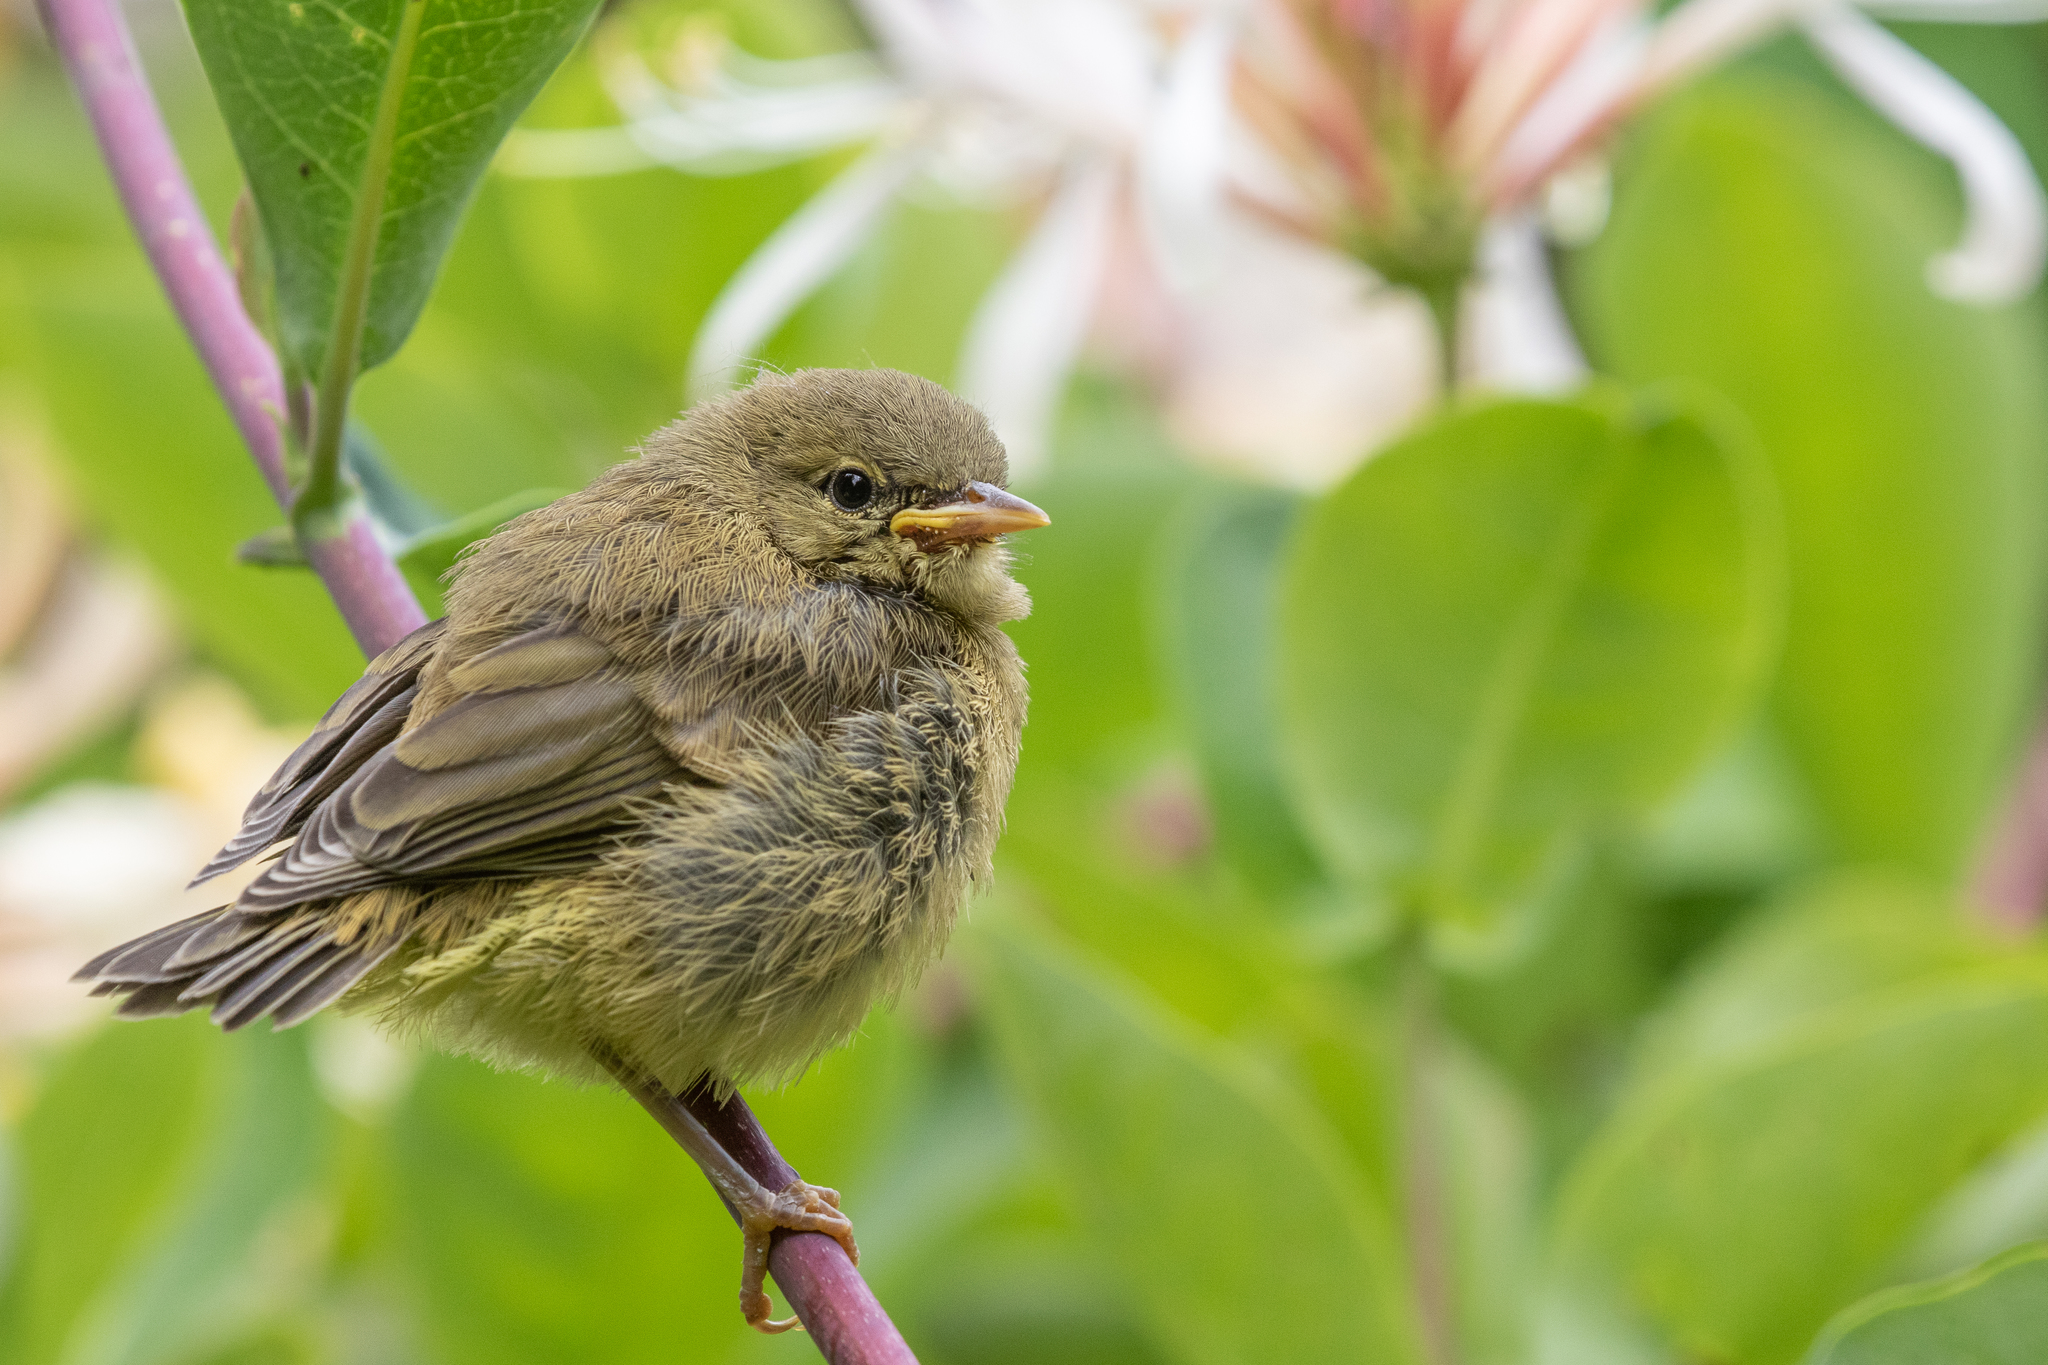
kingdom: Animalia
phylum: Chordata
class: Aves
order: Passeriformes
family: Parulidae
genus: Leiothlypis
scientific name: Leiothlypis celata
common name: Orange-crowned warbler
